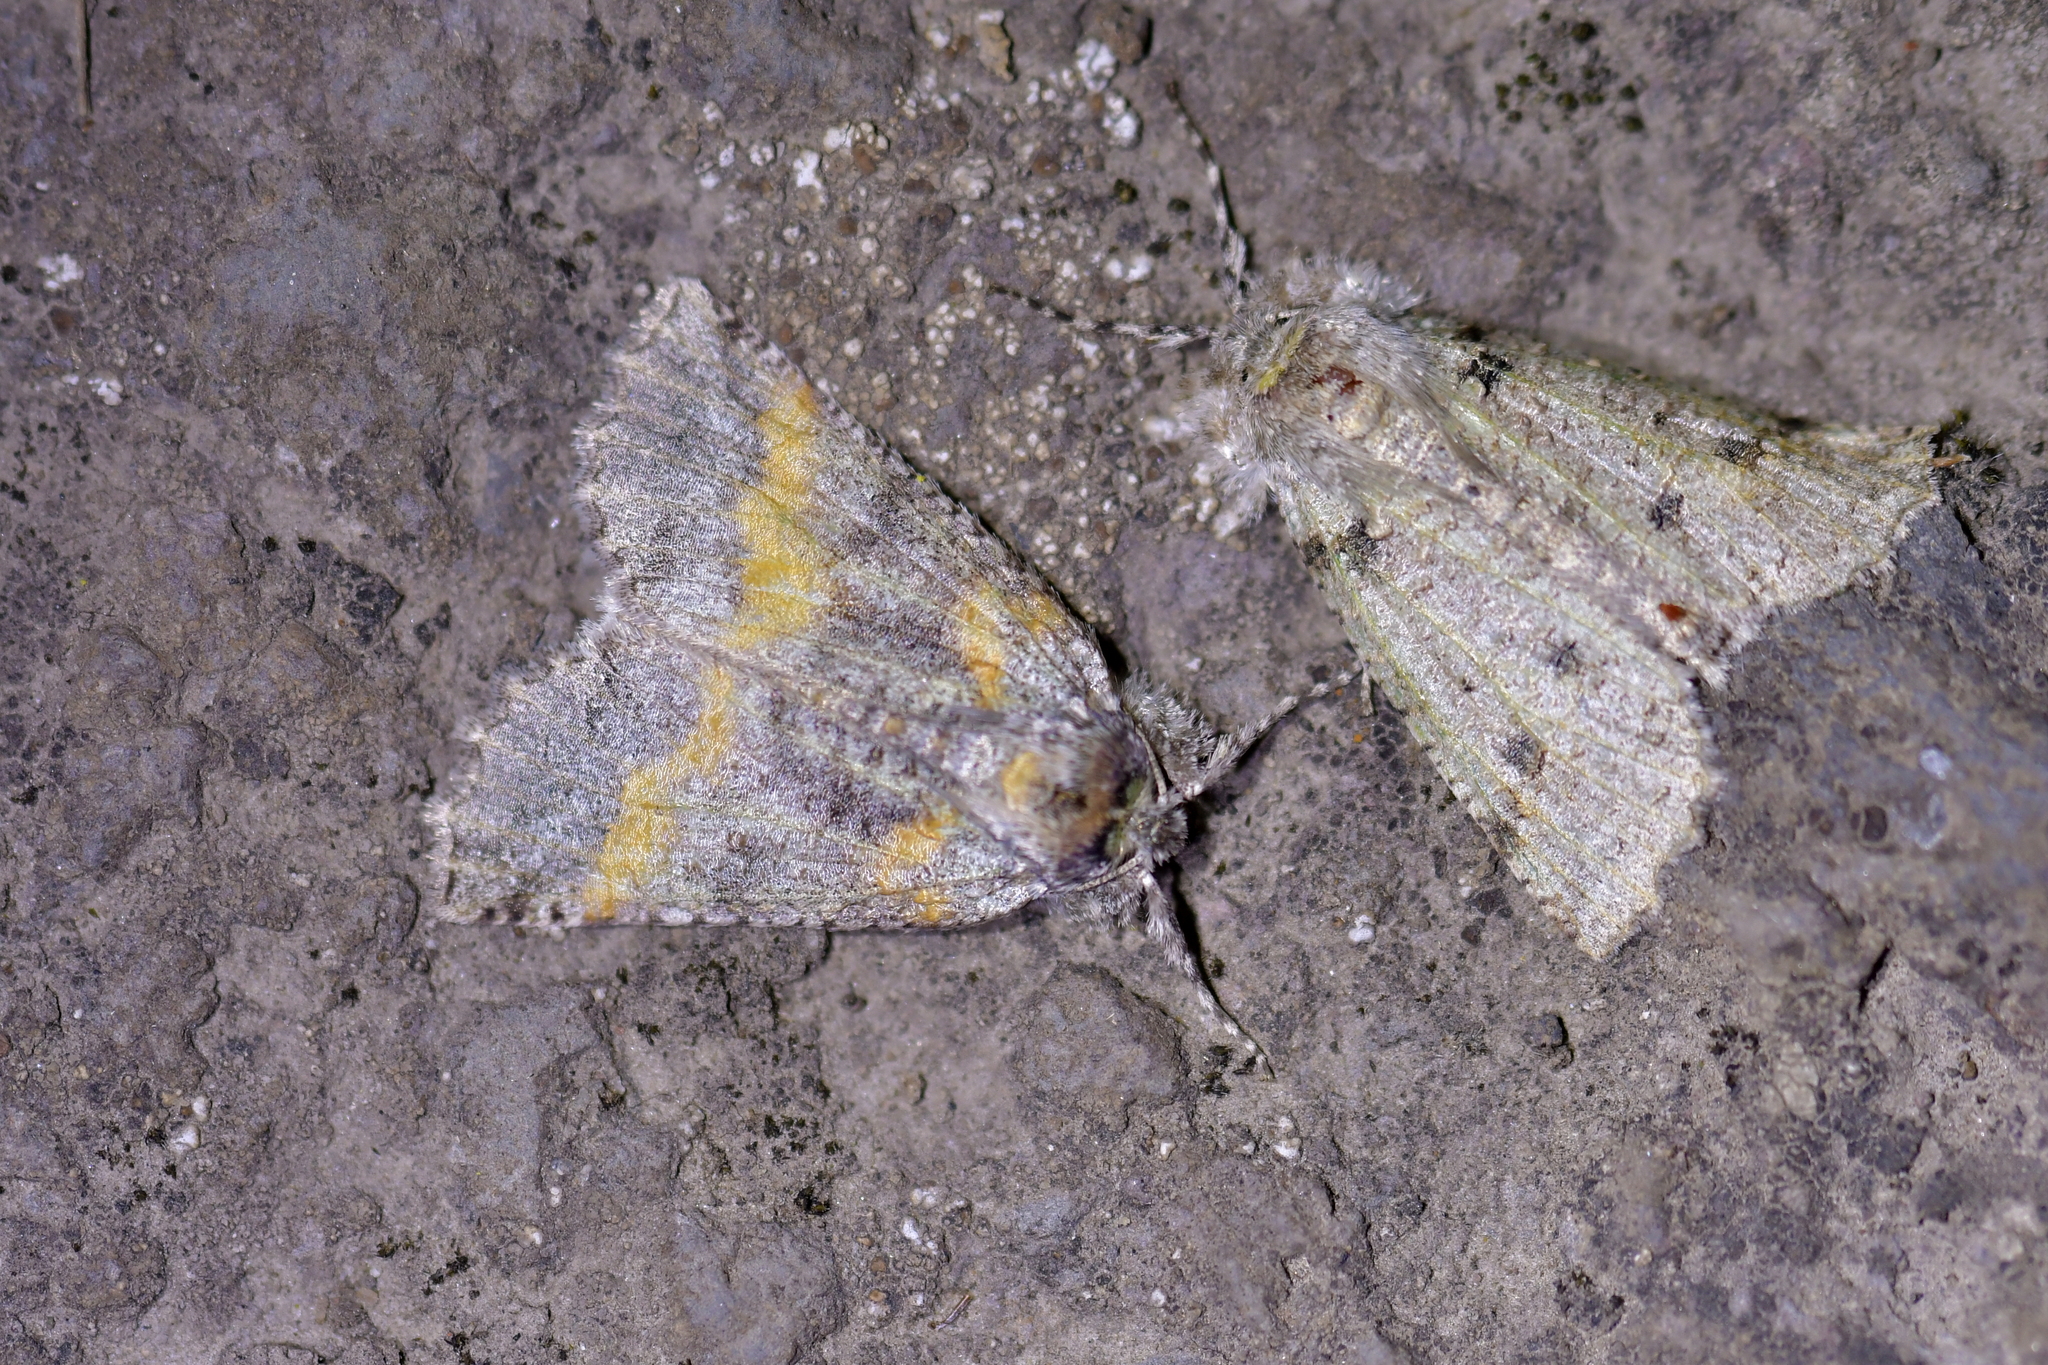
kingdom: Animalia
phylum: Arthropoda
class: Insecta
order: Lepidoptera
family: Geometridae
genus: Declana
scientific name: Declana floccosa
